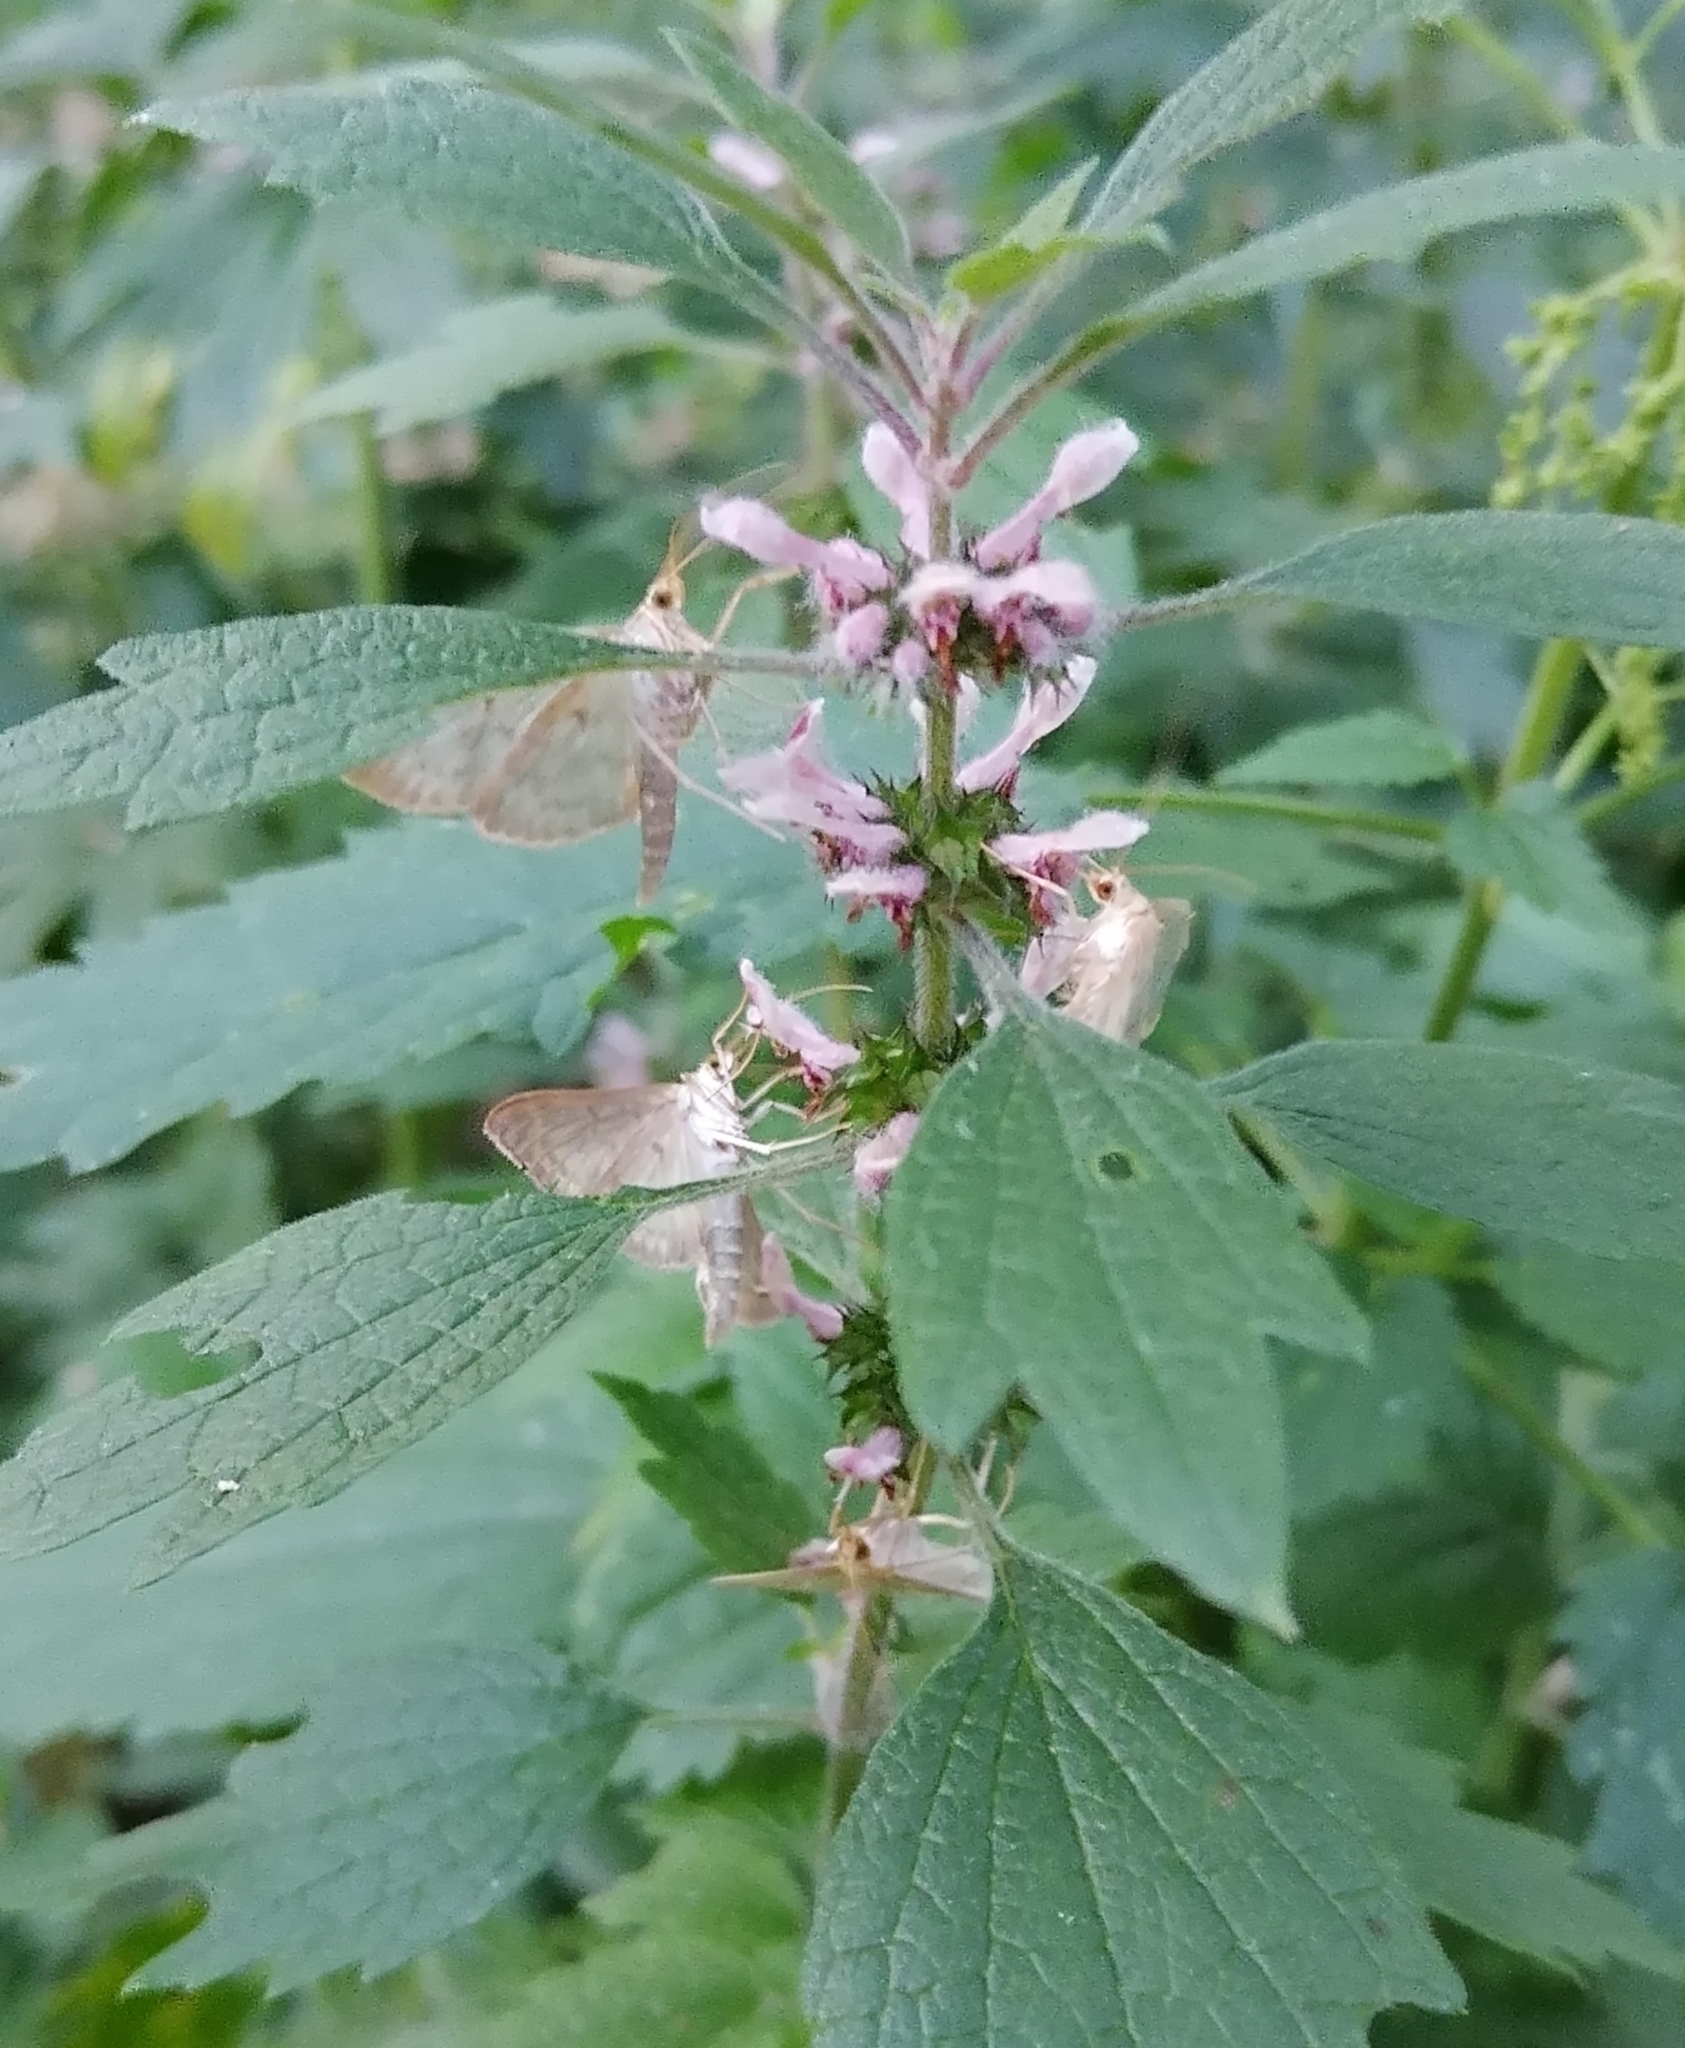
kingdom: Animalia
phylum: Arthropoda
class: Insecta
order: Lepidoptera
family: Crambidae
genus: Patania
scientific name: Patania ruralis
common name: Mother of pearl
